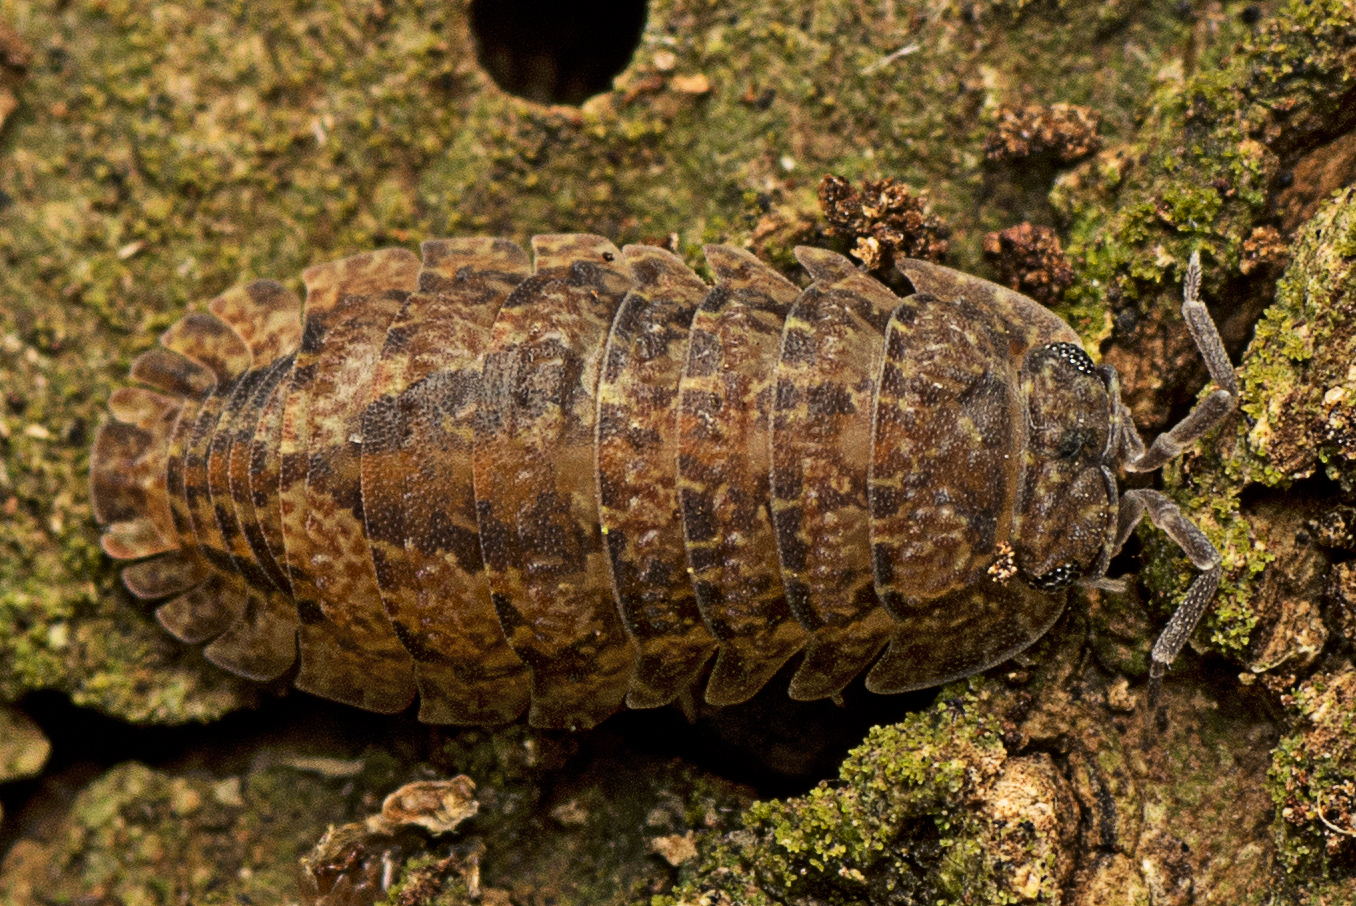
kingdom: Animalia
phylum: Arthropoda
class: Malacostraca
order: Isopoda
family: Armadillidae
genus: Cubaris
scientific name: Cubaris marmorata
